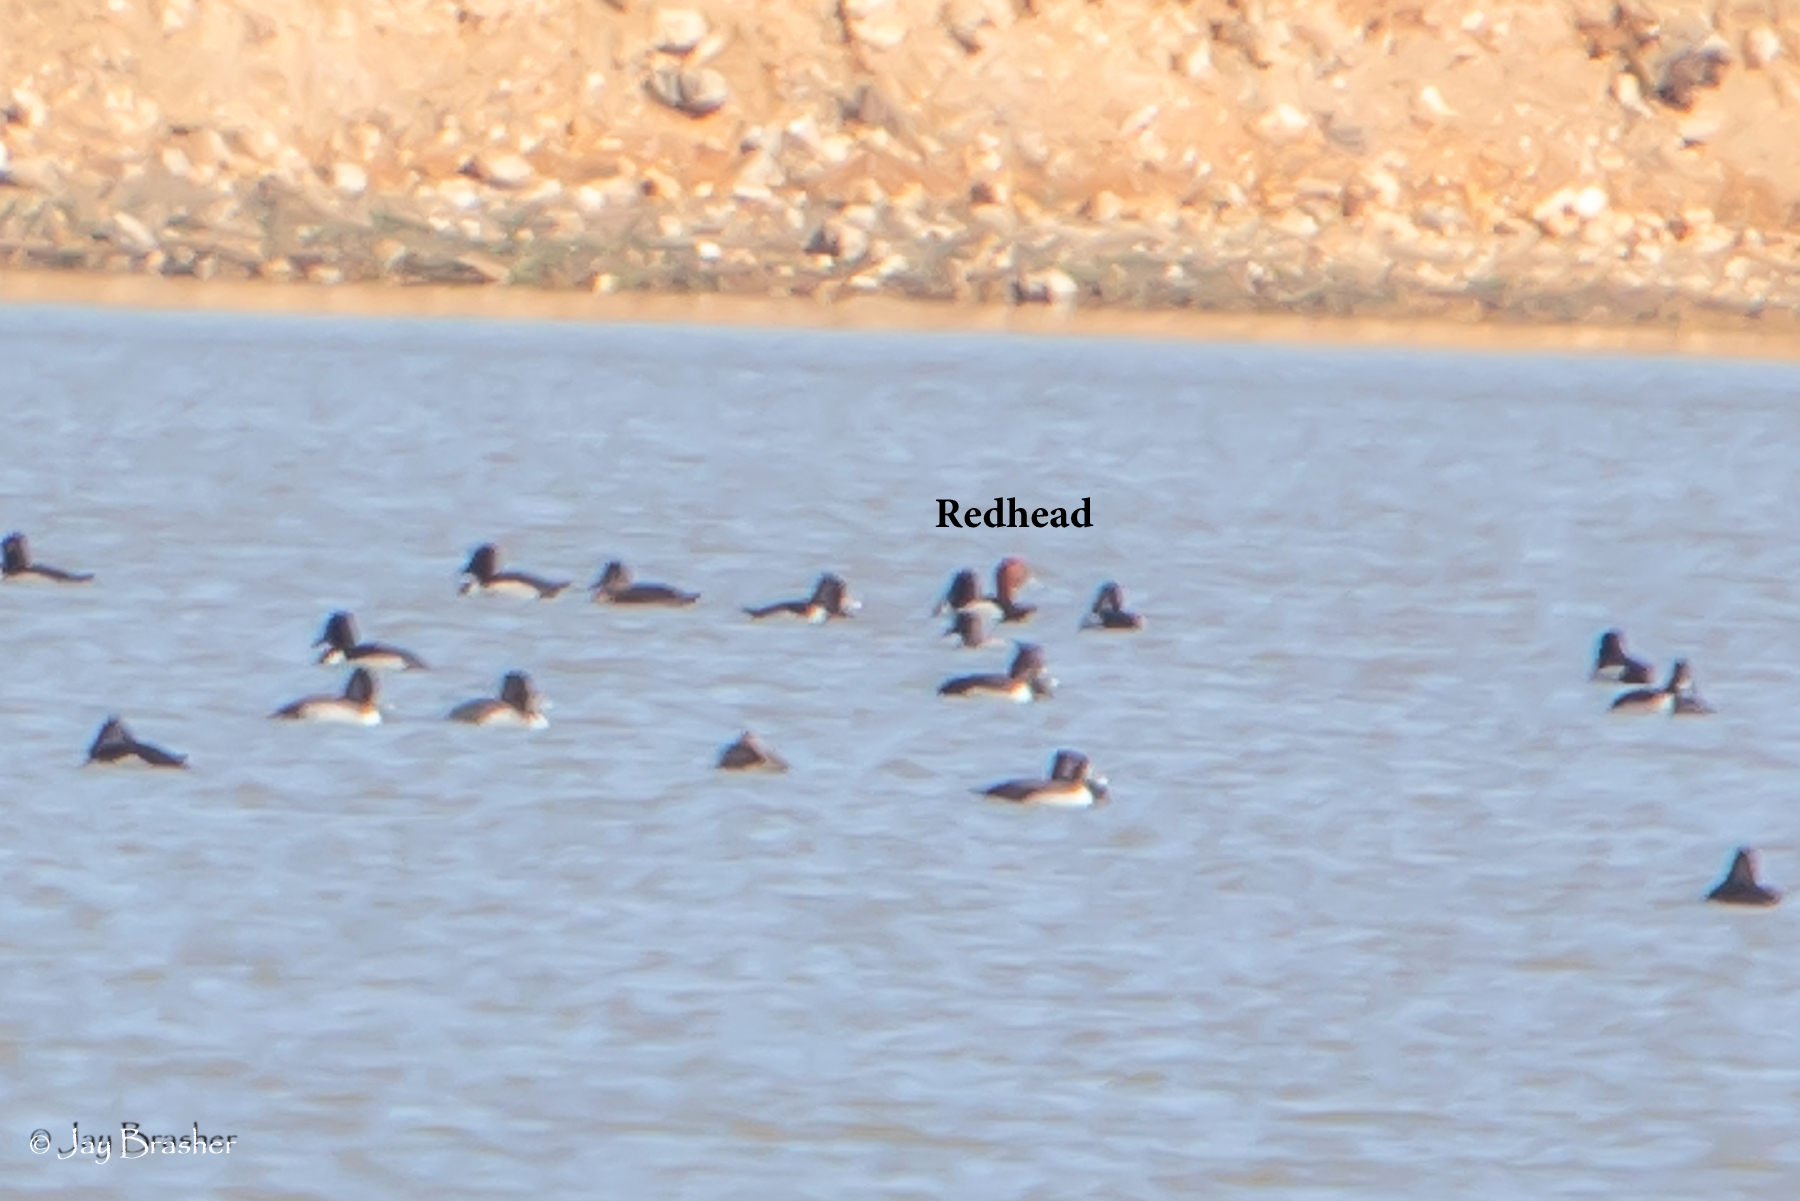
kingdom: Animalia
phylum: Chordata
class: Aves
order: Anseriformes
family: Anatidae
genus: Aythya
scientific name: Aythya americana
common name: Redhead
